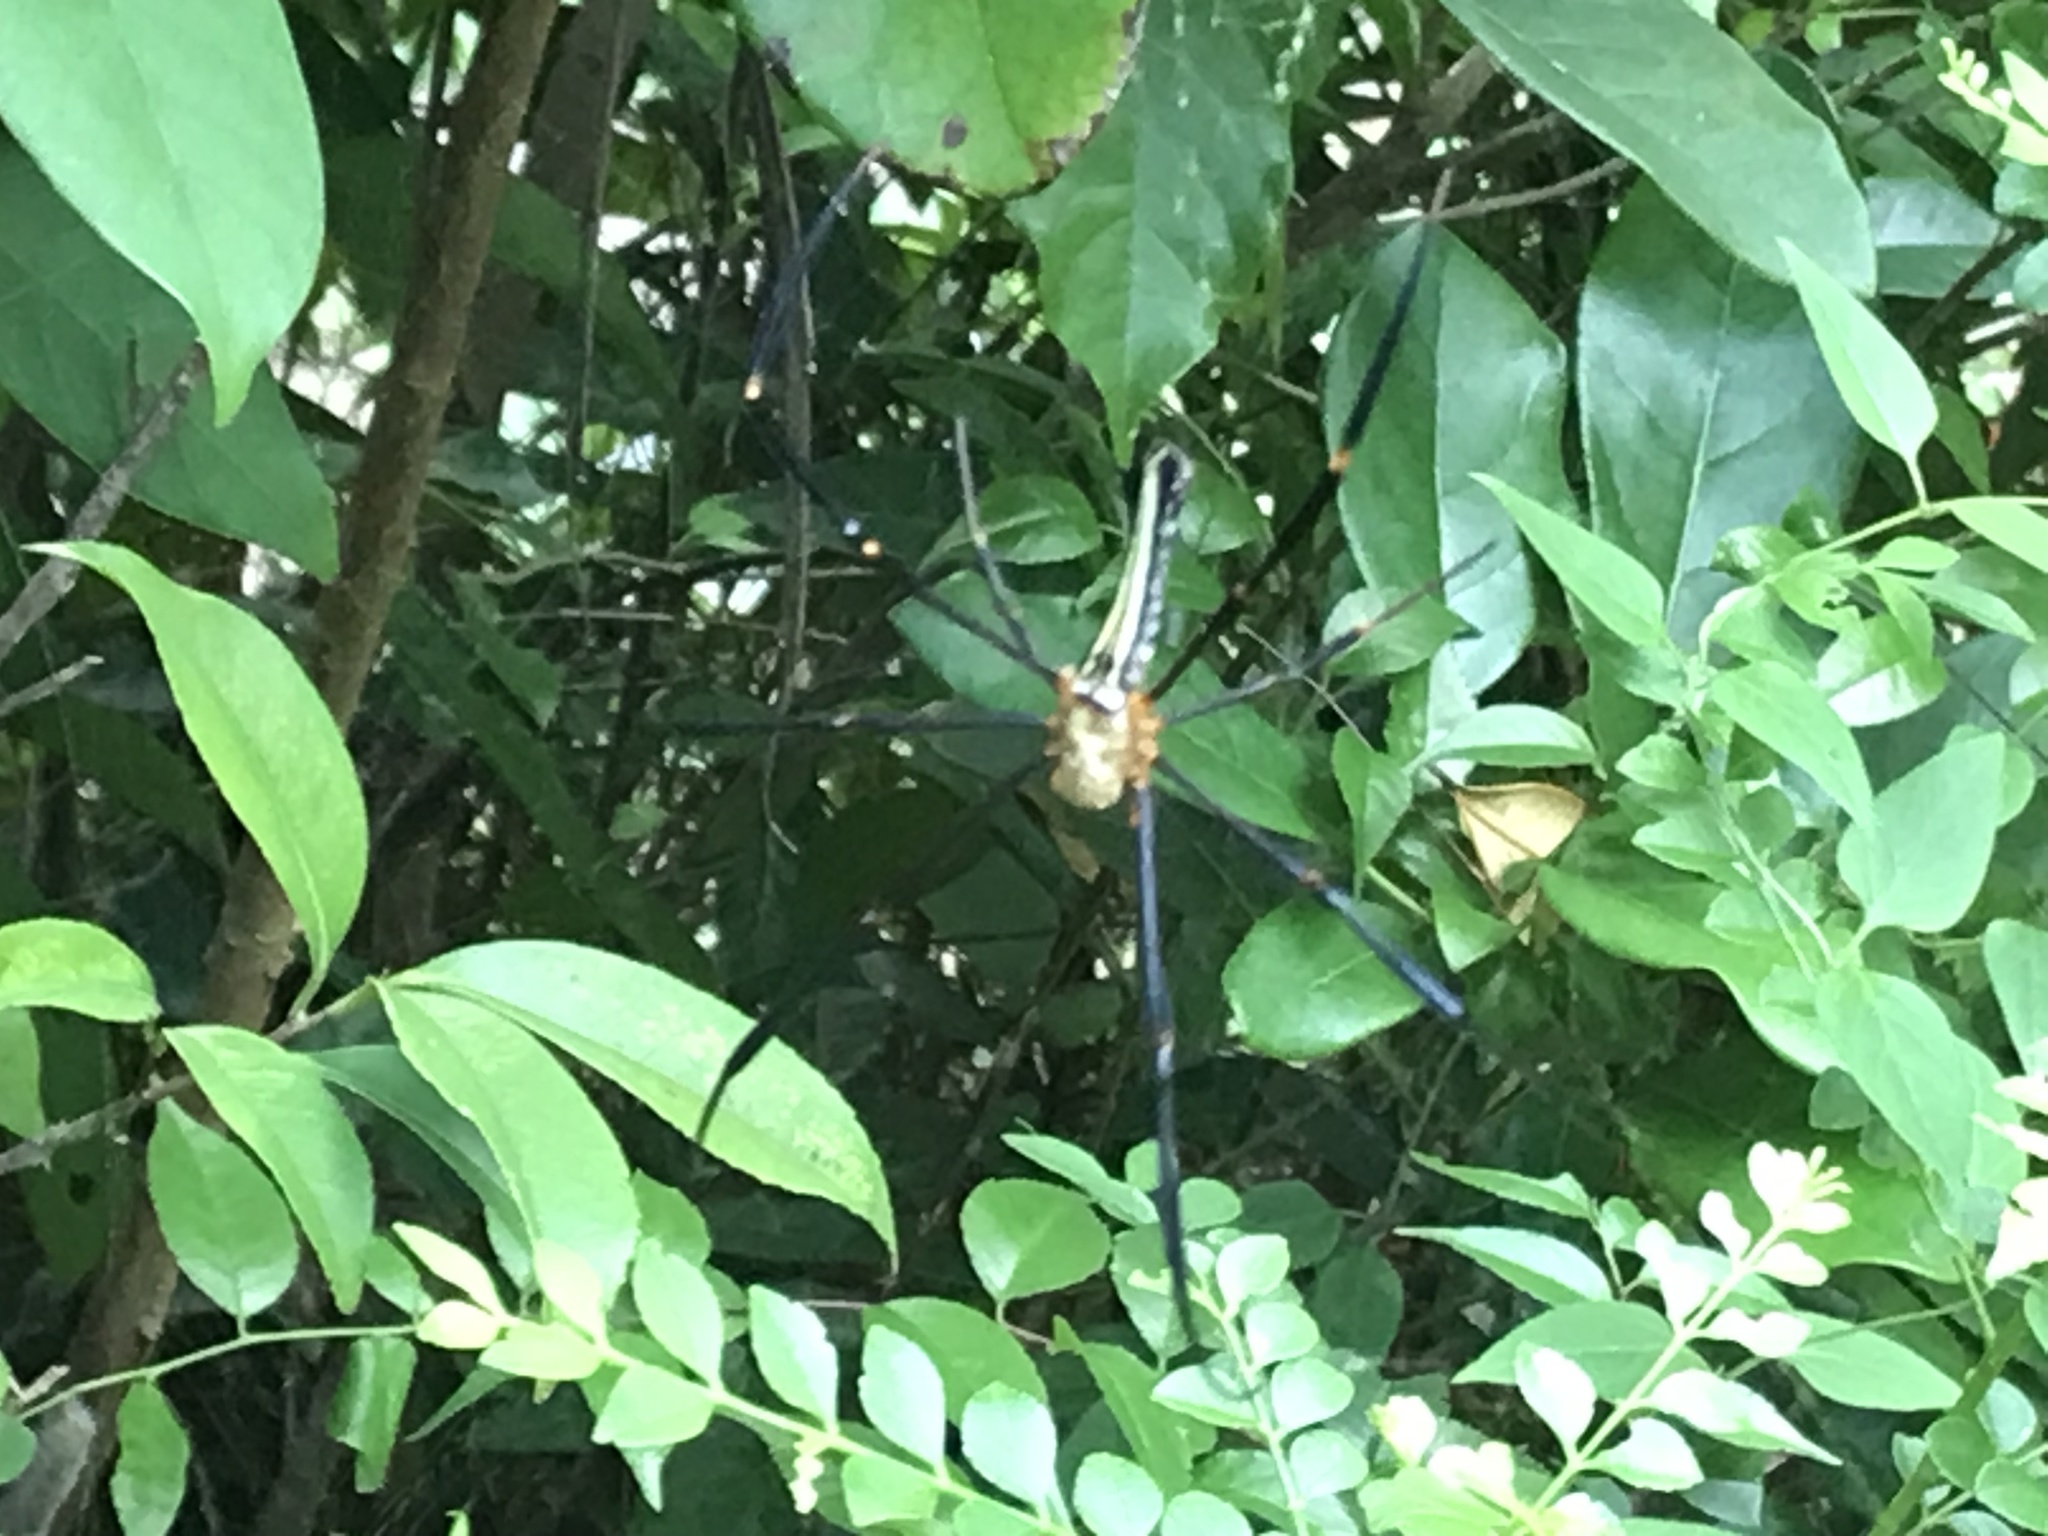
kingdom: Animalia
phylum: Arthropoda
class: Arachnida
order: Araneae
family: Araneidae
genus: Nephila
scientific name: Nephila pilipes
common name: Giant golden orb weaver
